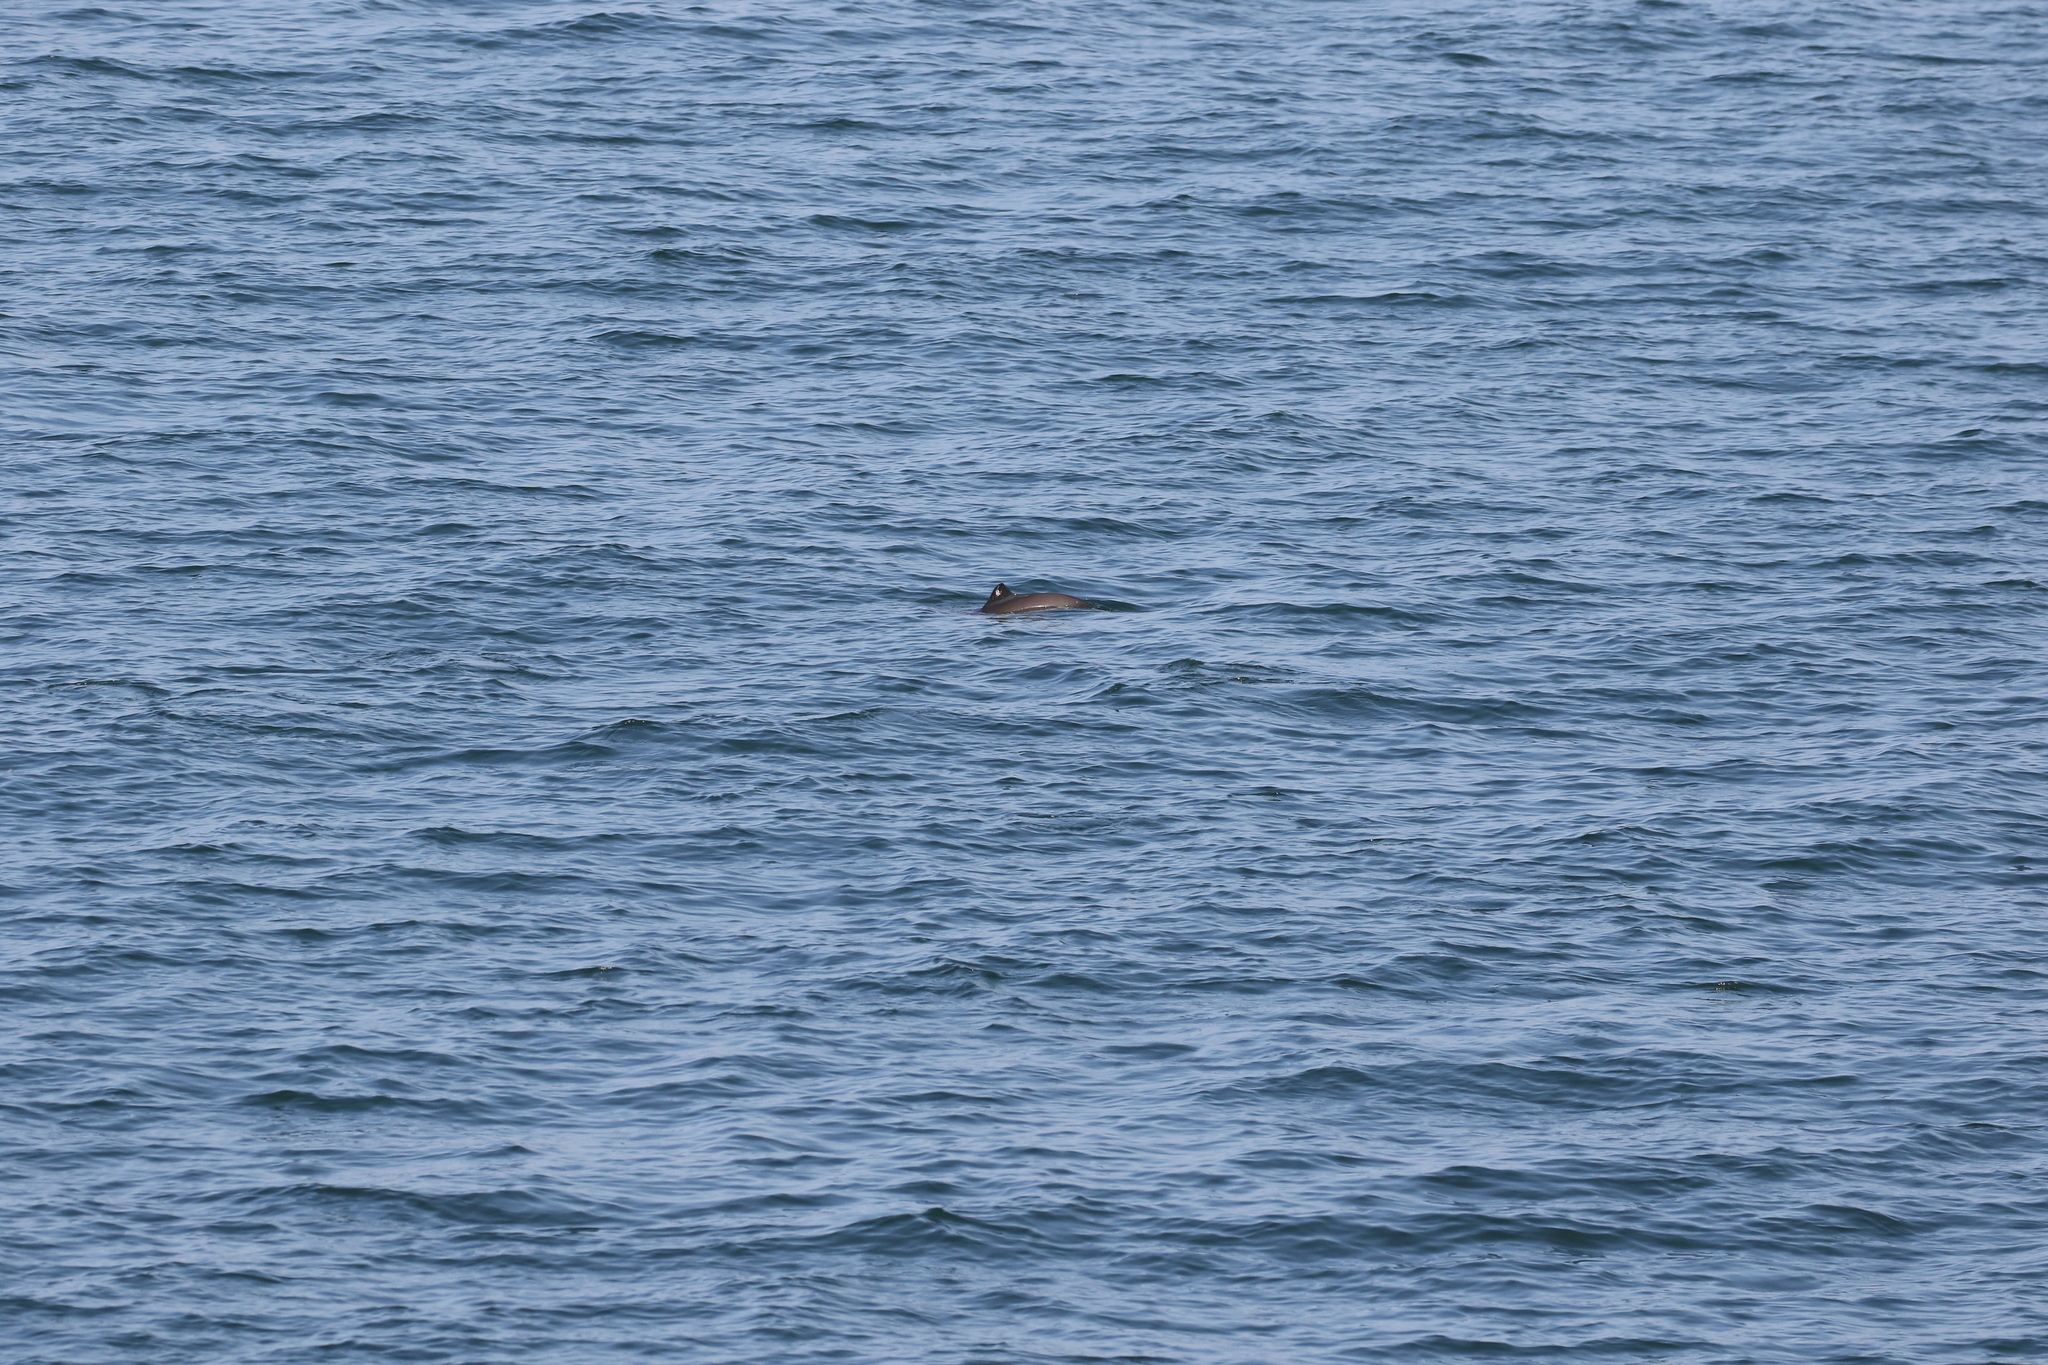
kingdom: Animalia
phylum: Chordata
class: Mammalia
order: Cetacea
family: Phocoenidae
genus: Phocoena
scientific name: Phocoena phocoena
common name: Harbor porpoise
